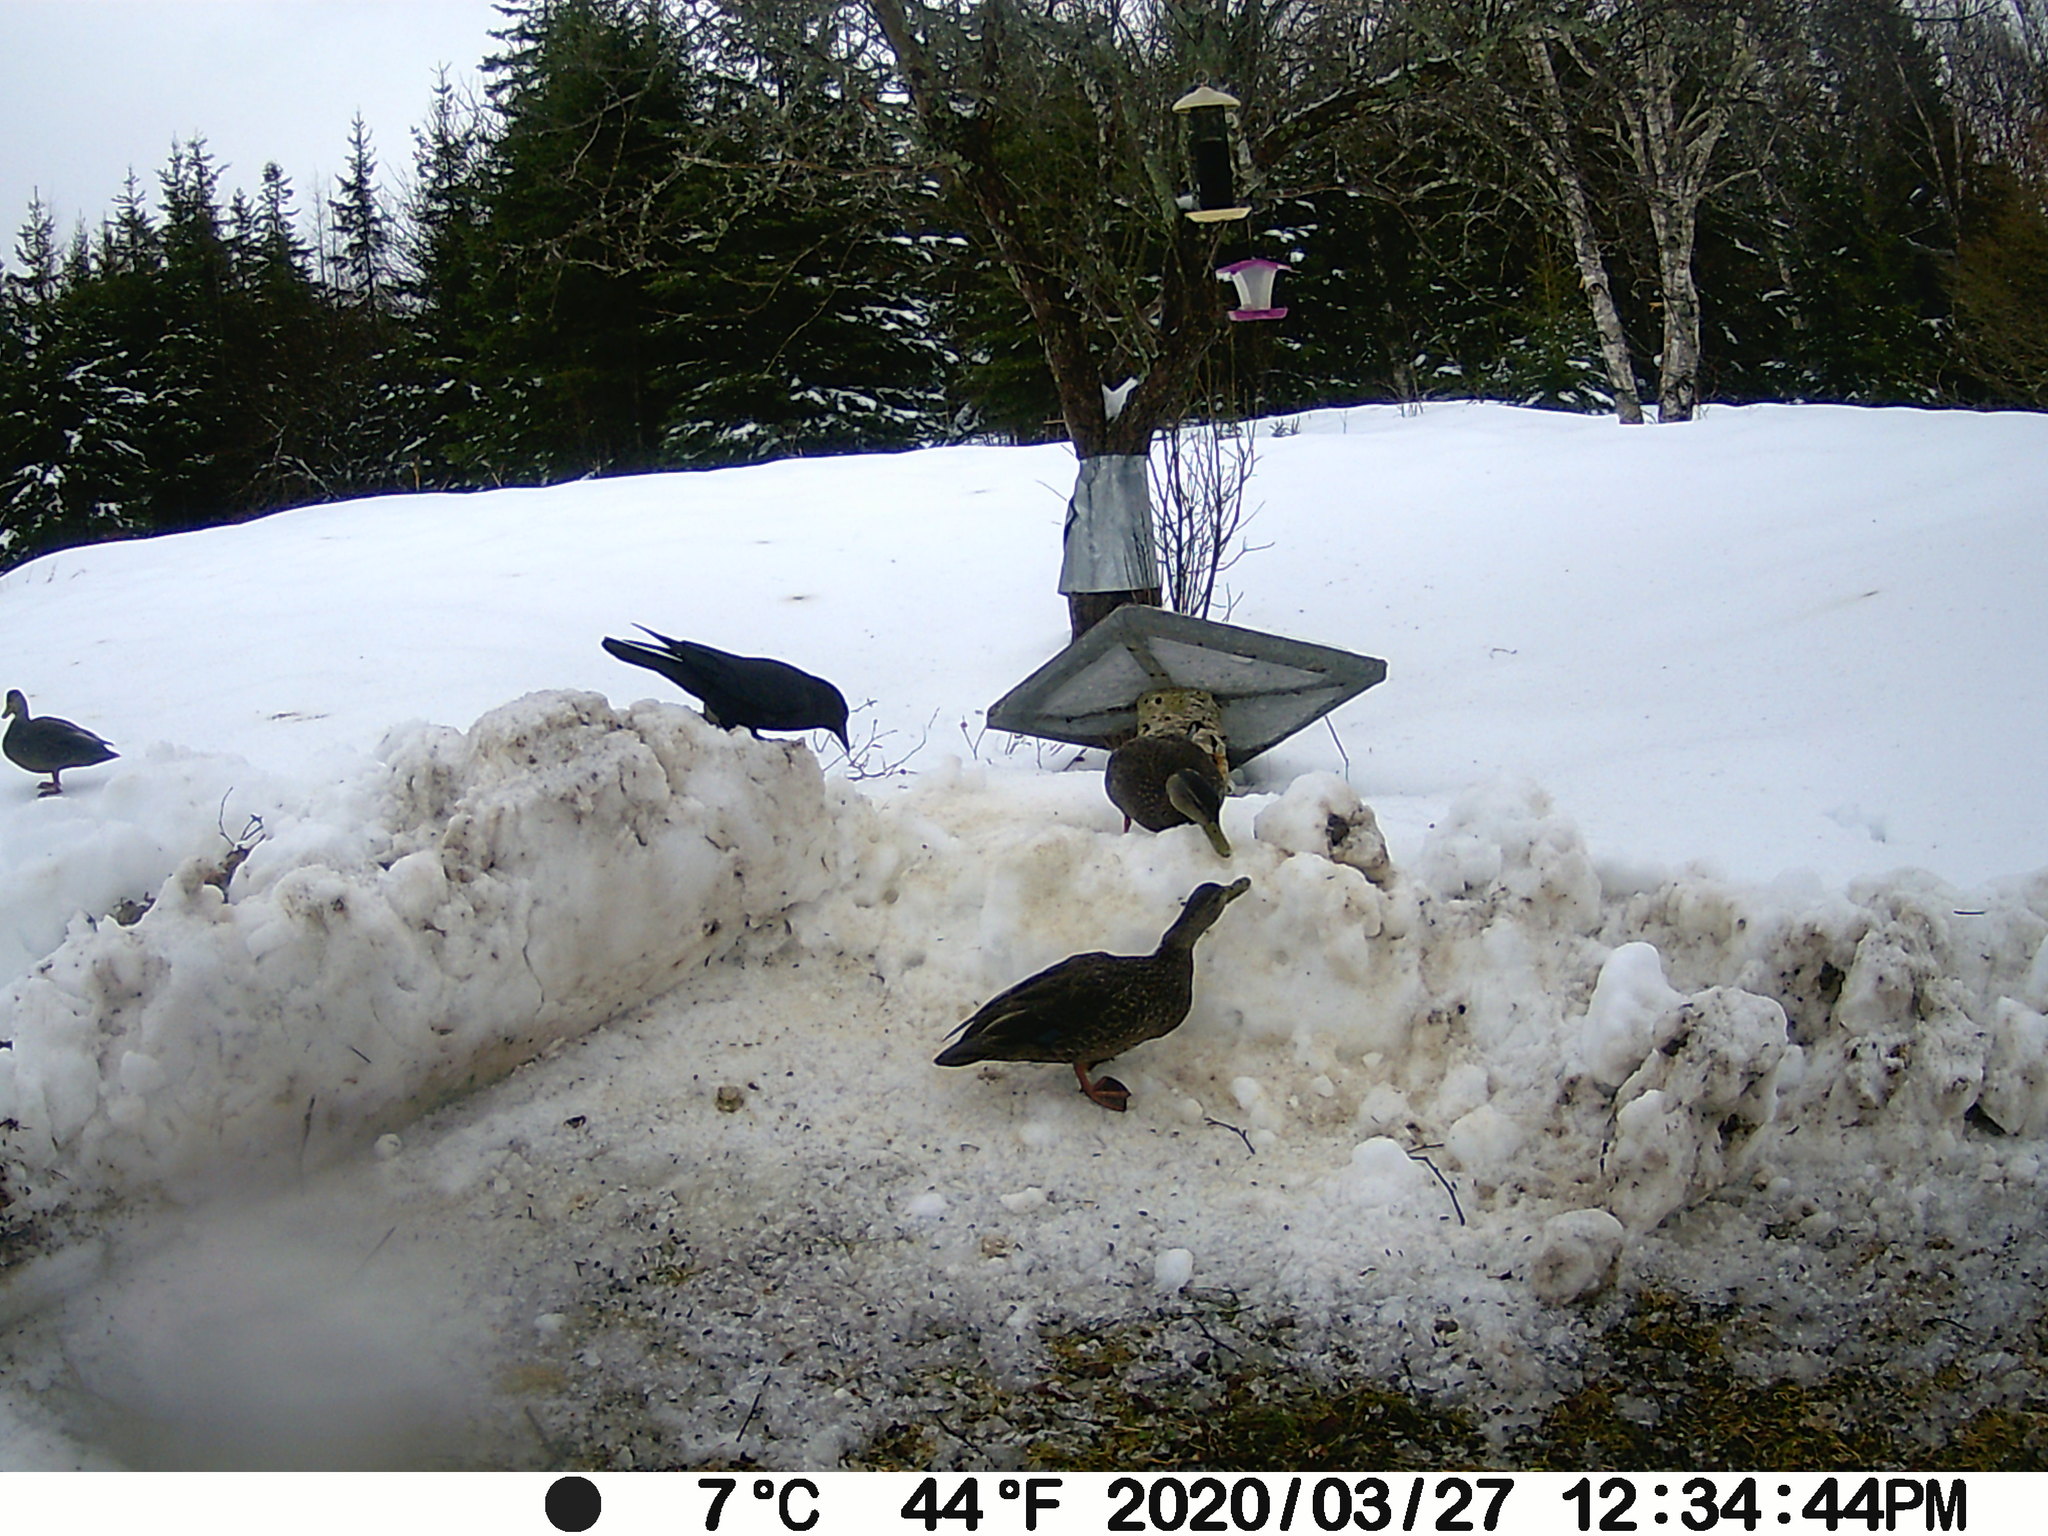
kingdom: Animalia
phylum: Chordata
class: Aves
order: Anseriformes
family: Anatidae
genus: Anas
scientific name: Anas rubripes
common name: American black duck
